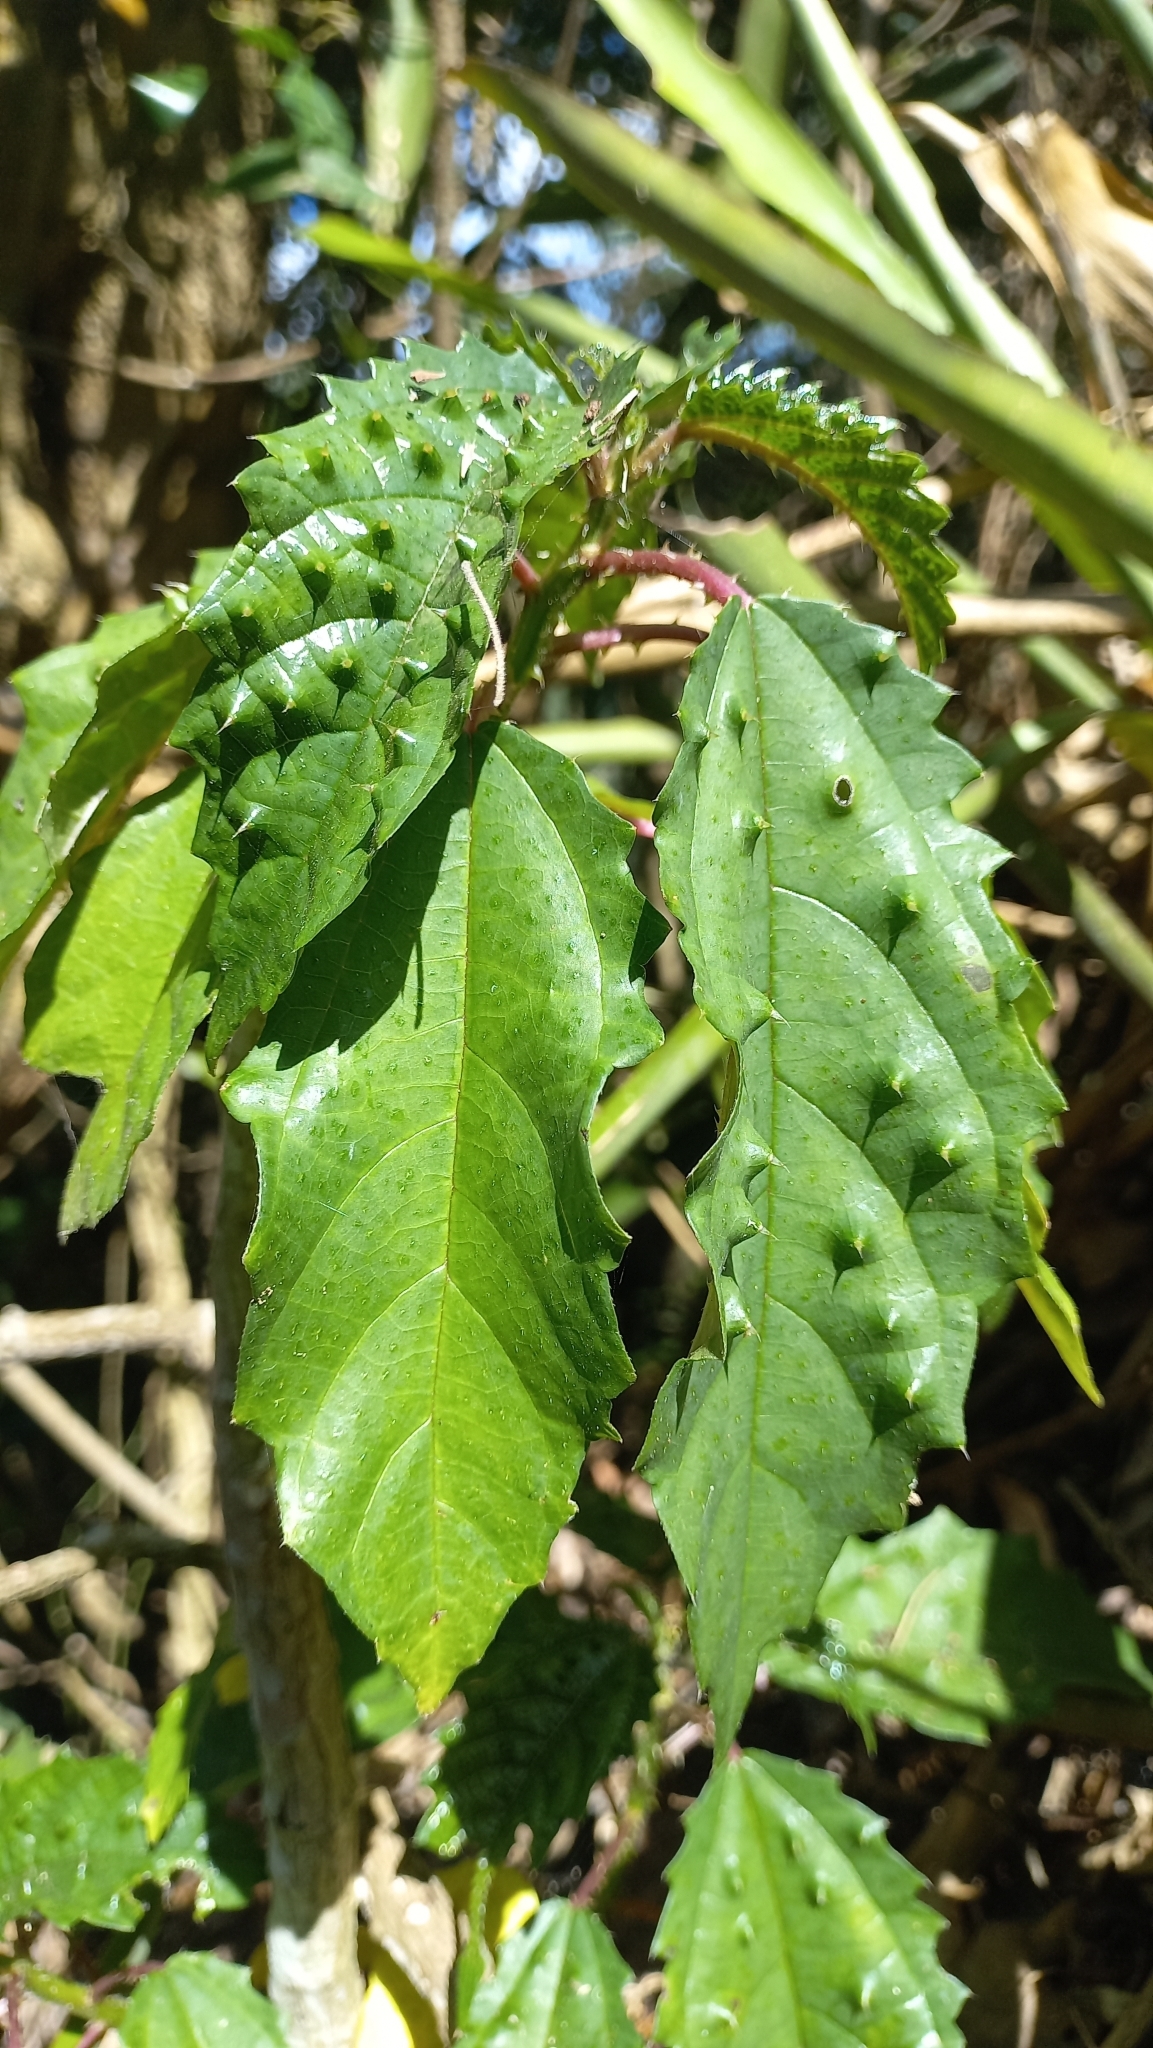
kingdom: Plantae
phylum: Tracheophyta
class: Magnoliopsida
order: Rosales
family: Urticaceae
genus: Urera
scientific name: Urera nitida
